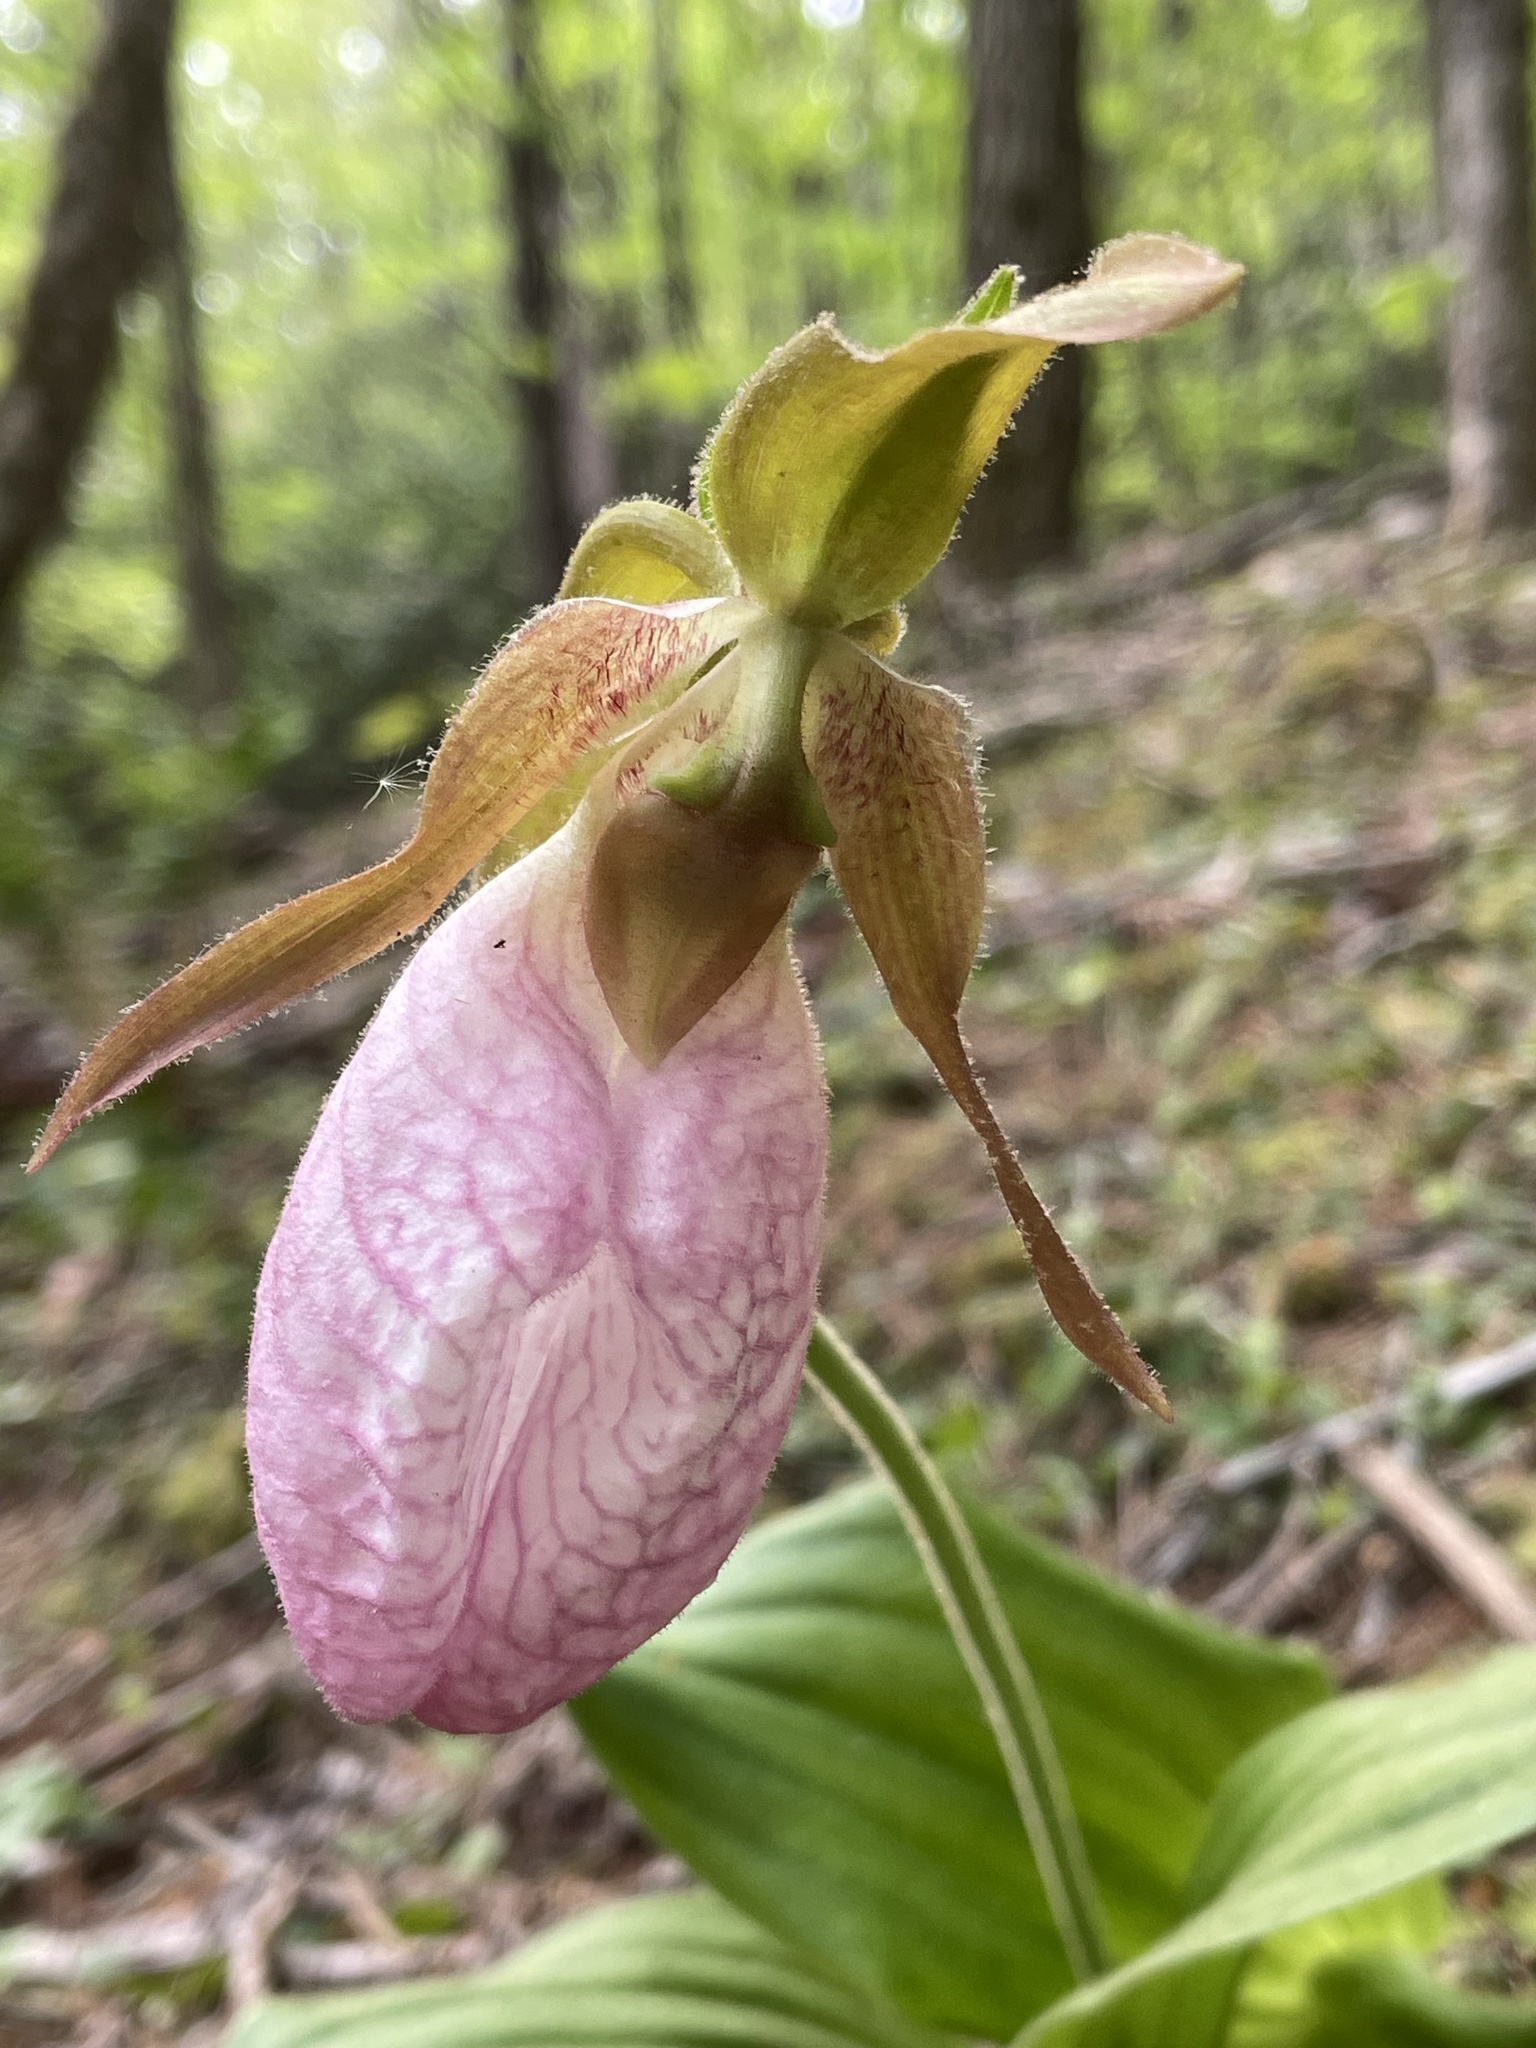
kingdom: Plantae
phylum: Tracheophyta
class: Liliopsida
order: Asparagales
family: Orchidaceae
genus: Cypripedium
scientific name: Cypripedium acaule
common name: Pink lady's-slipper
